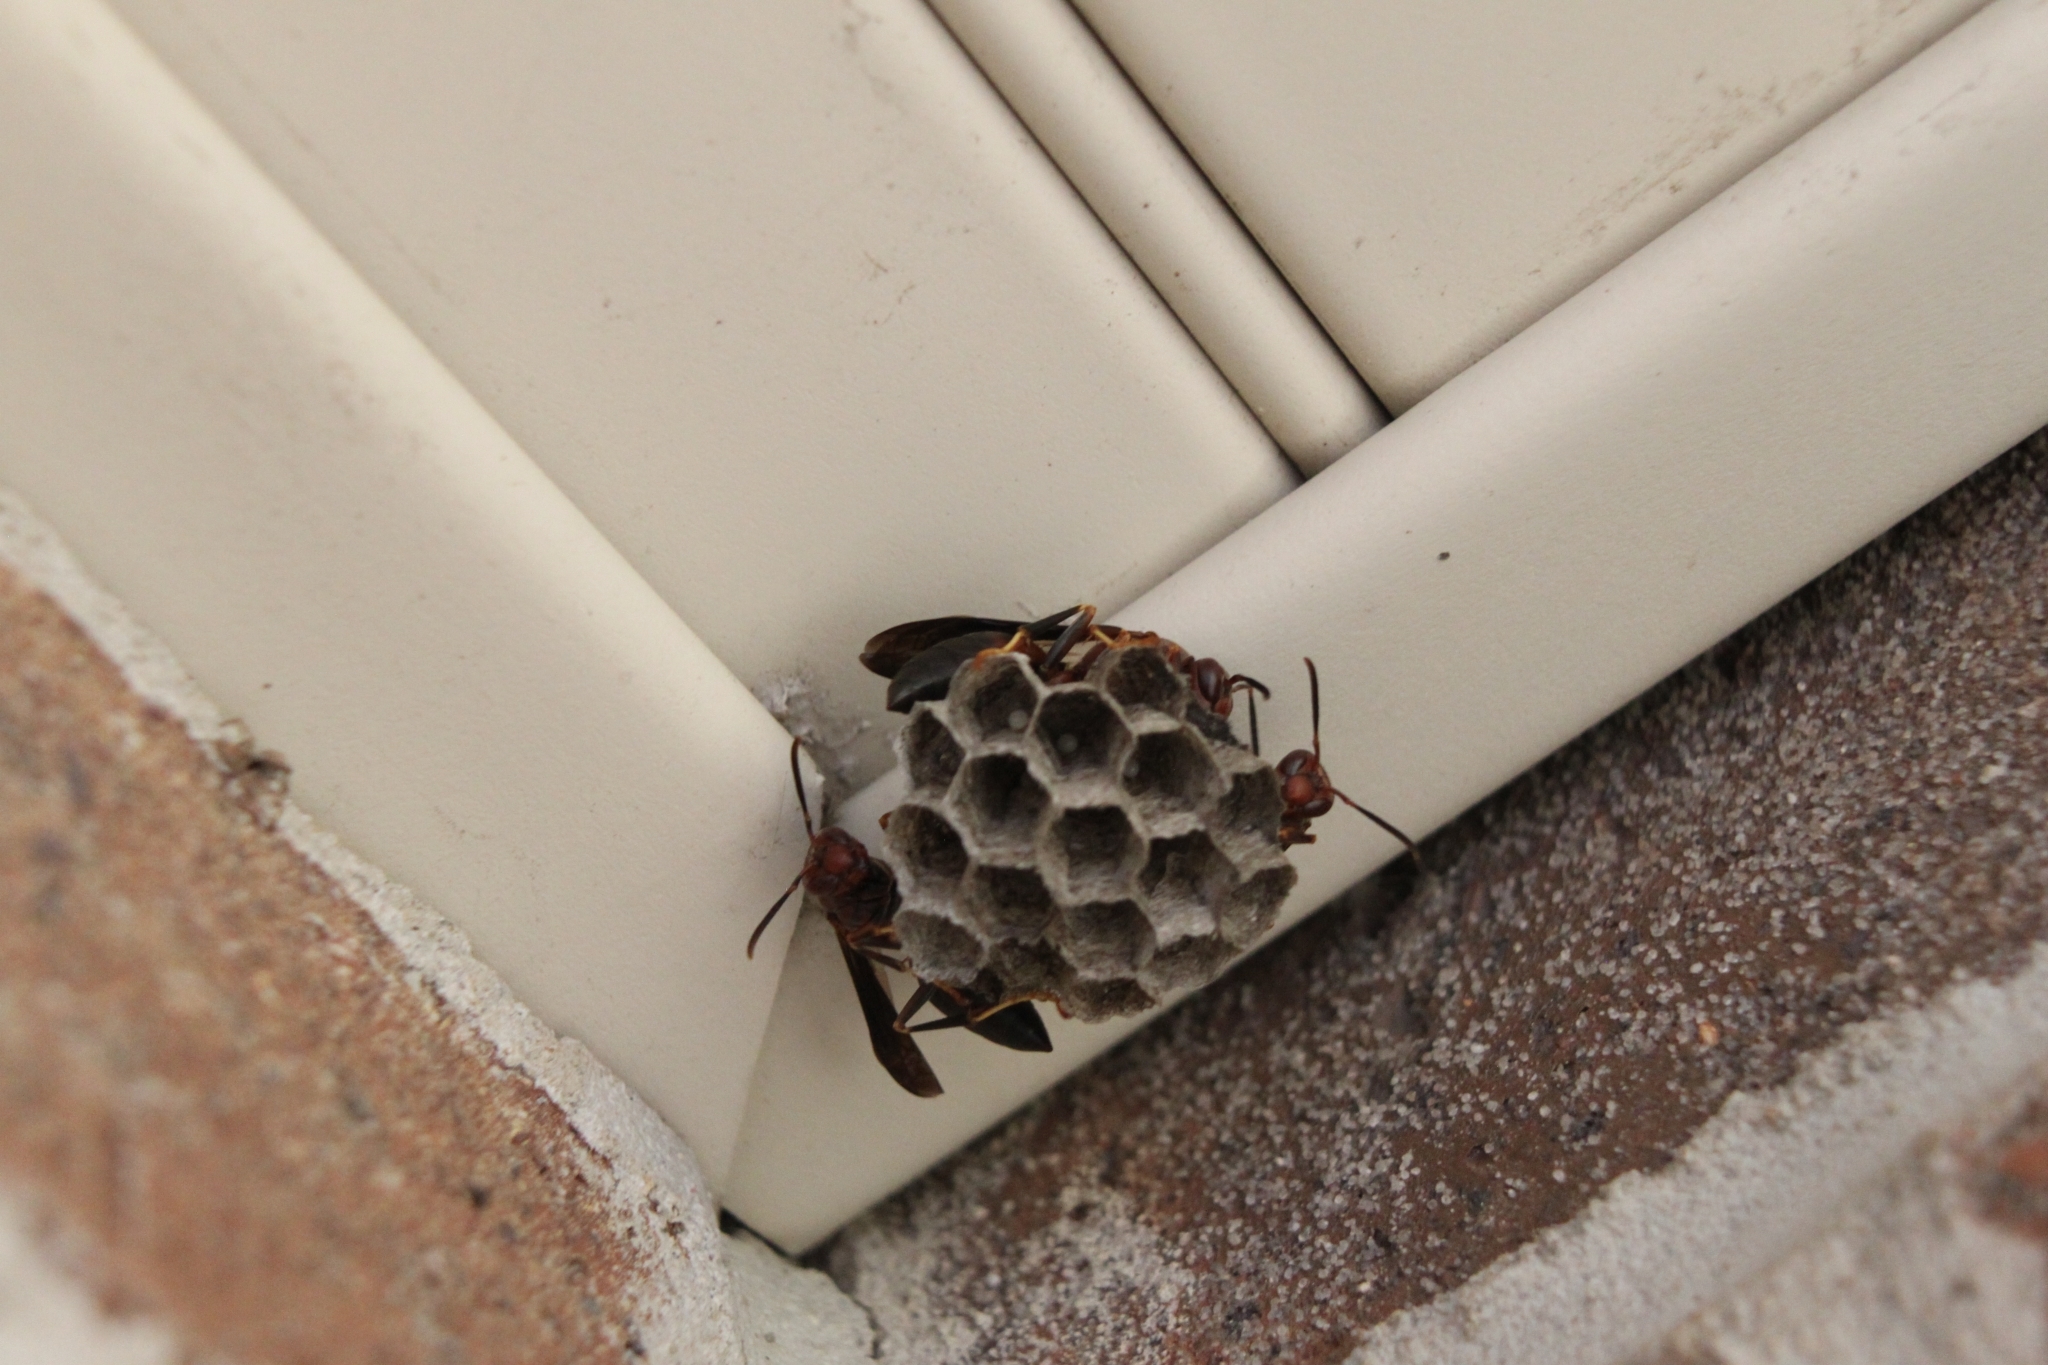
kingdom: Animalia
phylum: Arthropoda
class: Insecta
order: Hymenoptera
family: Eumenidae
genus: Polistes
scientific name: Polistes metricus
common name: Metric paper wasp
